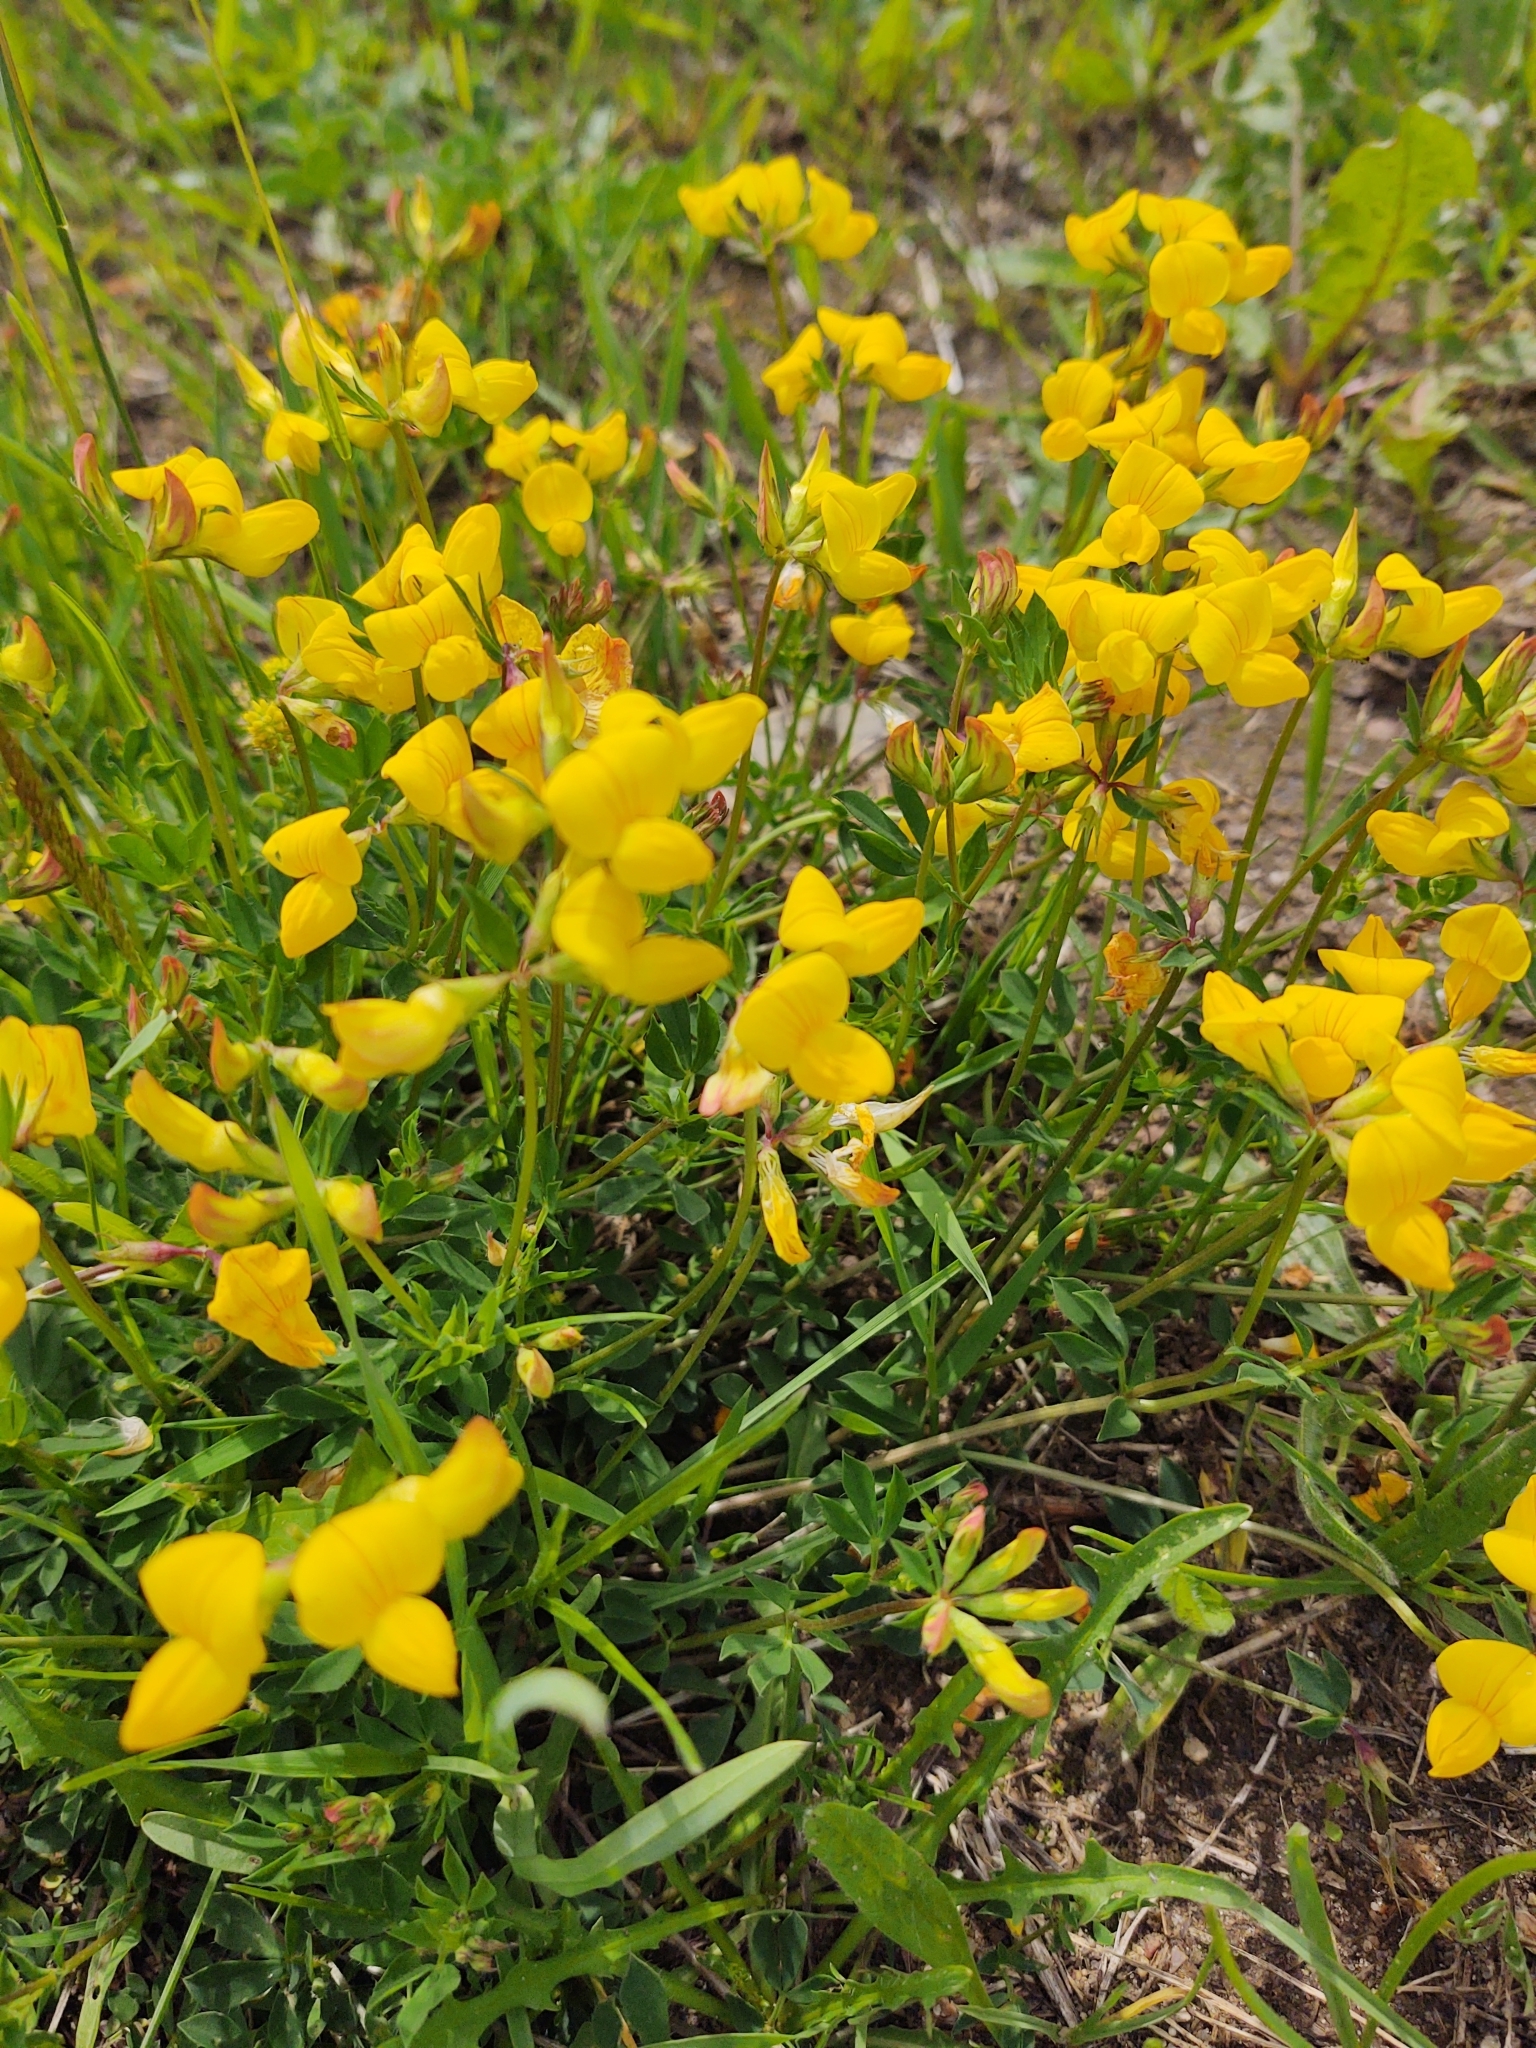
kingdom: Plantae
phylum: Tracheophyta
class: Magnoliopsida
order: Fabales
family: Fabaceae
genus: Lotus
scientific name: Lotus corniculatus
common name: Common bird's-foot-trefoil
